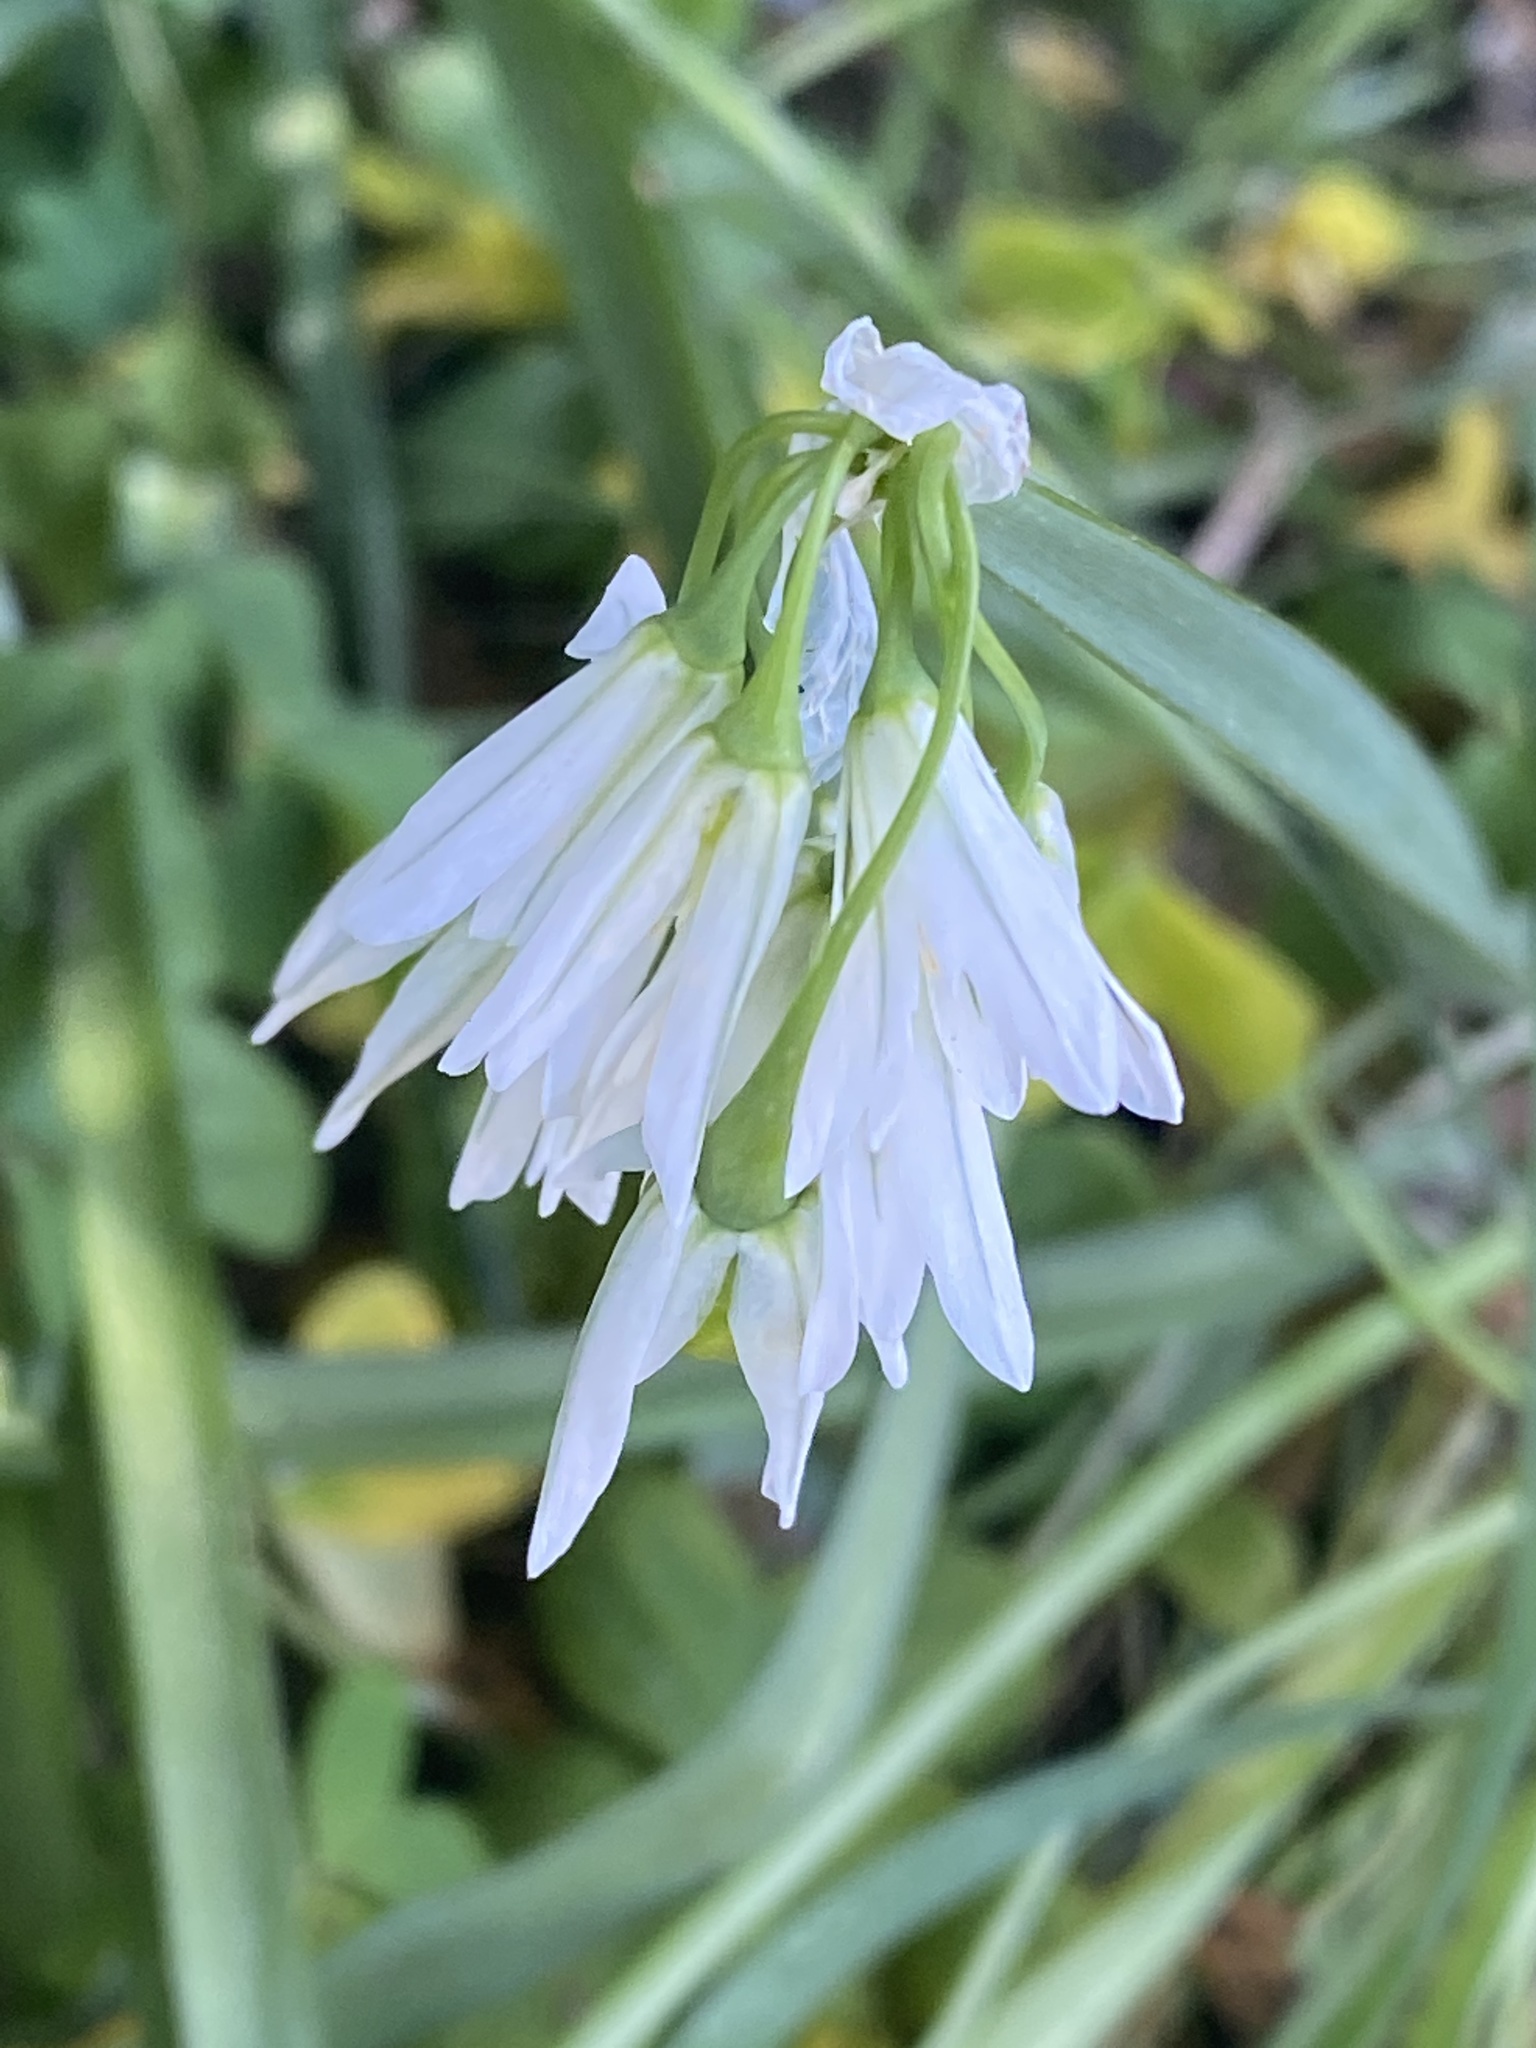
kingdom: Plantae
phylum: Tracheophyta
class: Liliopsida
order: Asparagales
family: Amaryllidaceae
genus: Allium
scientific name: Allium triquetrum
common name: Three-cornered garlic
